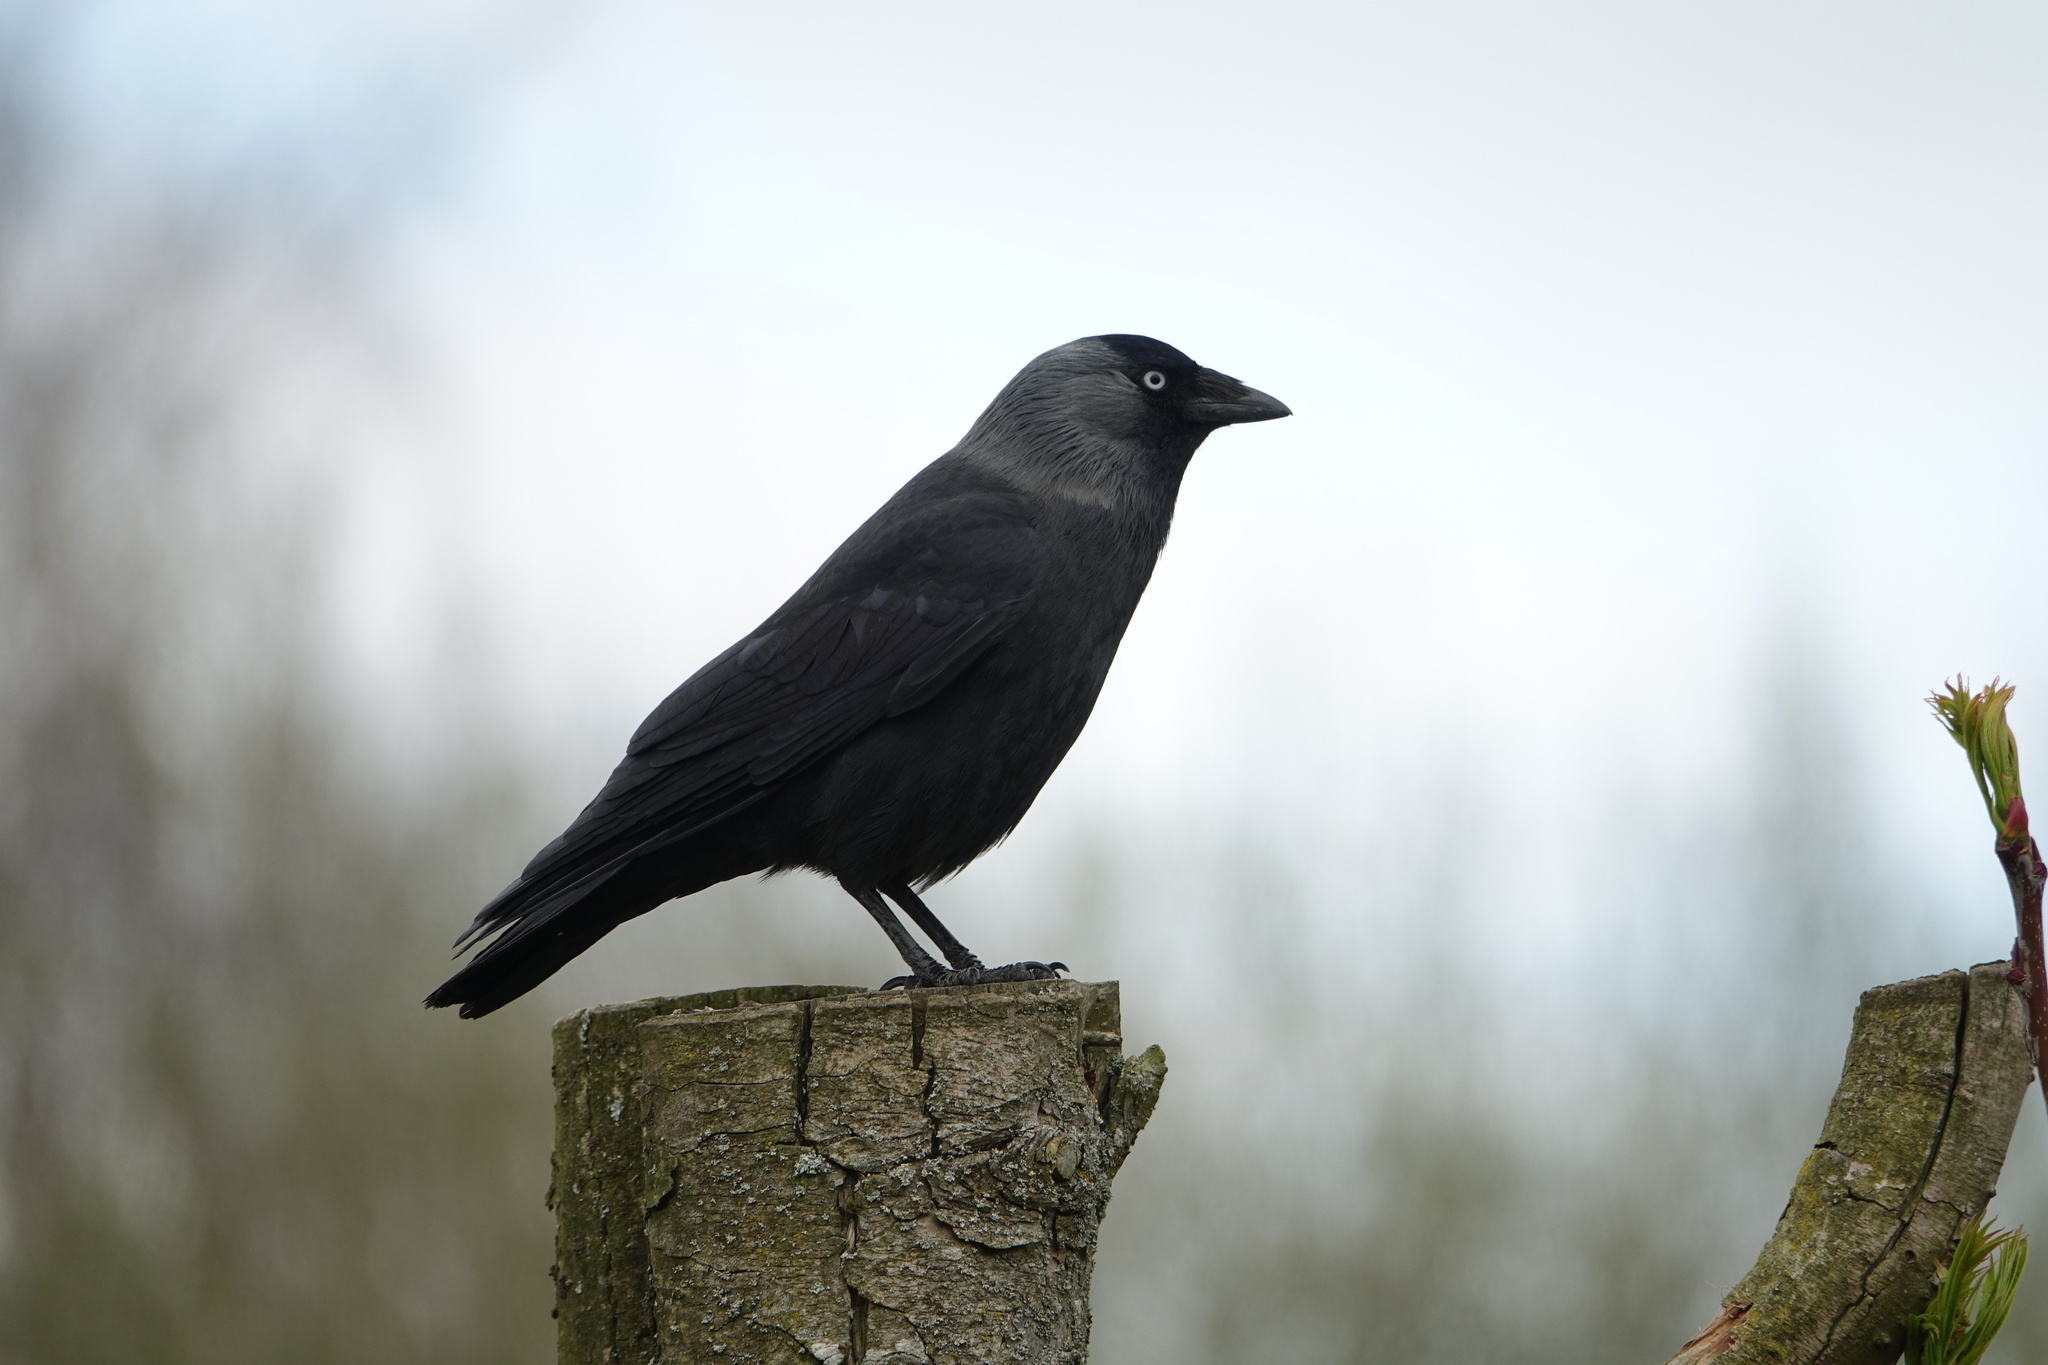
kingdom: Animalia
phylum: Chordata
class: Aves
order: Passeriformes
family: Corvidae
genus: Coloeus
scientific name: Coloeus monedula
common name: Western jackdaw
